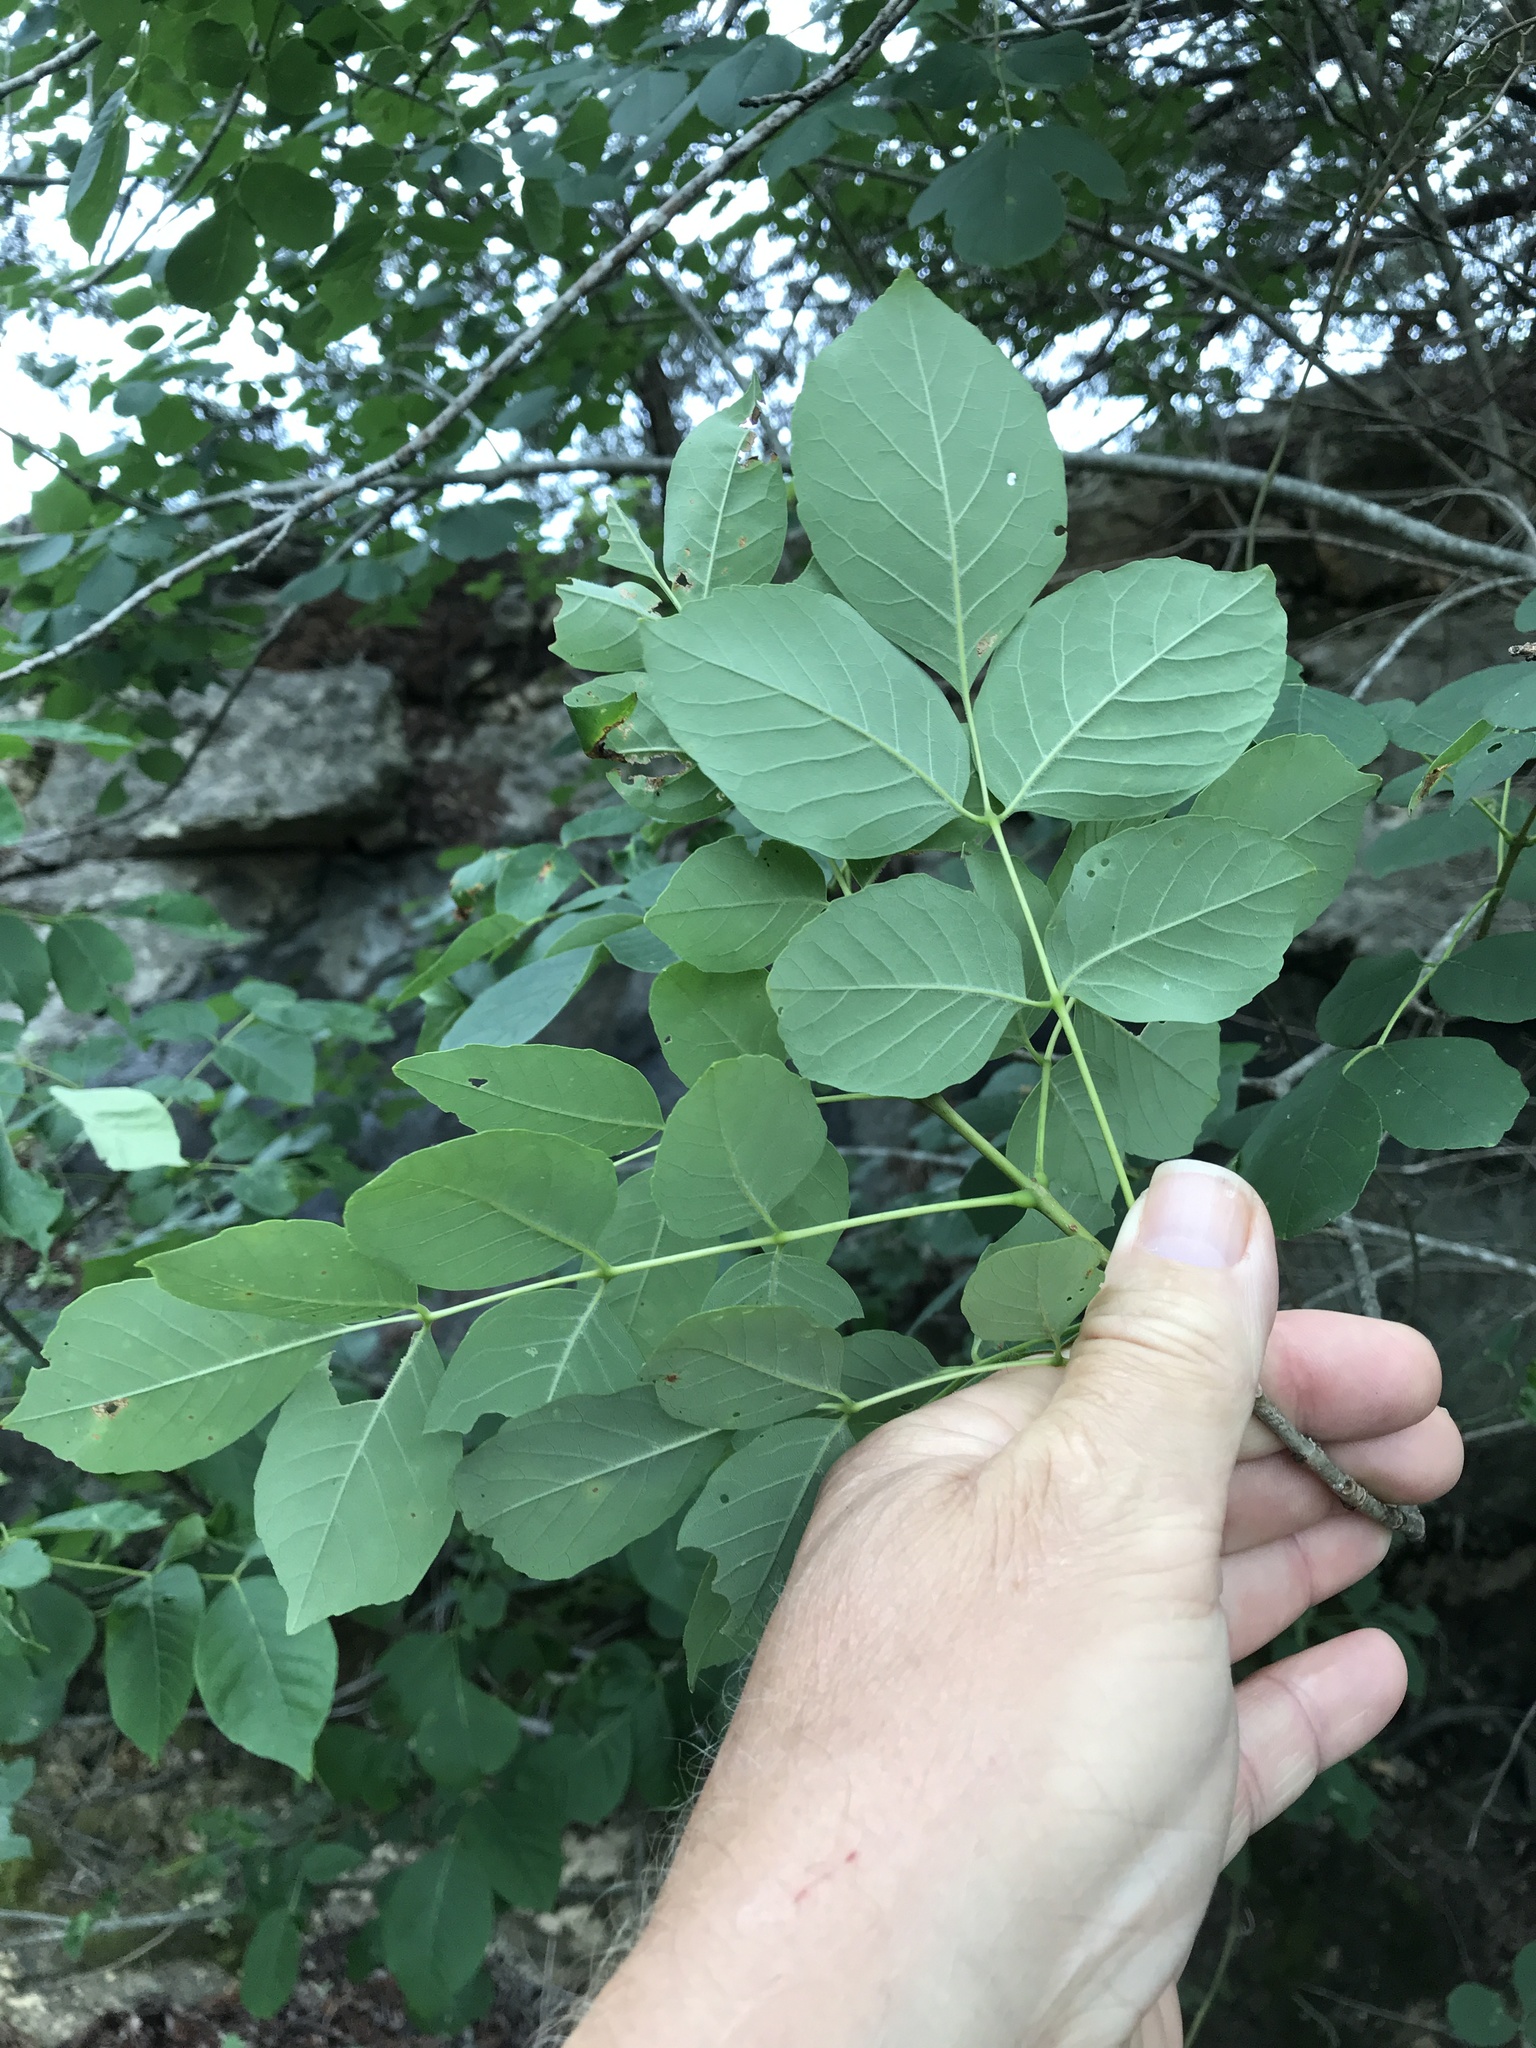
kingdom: Plantae
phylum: Tracheophyta
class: Magnoliopsida
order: Lamiales
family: Oleaceae
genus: Fraxinus
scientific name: Fraxinus albicans
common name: Texas ash
